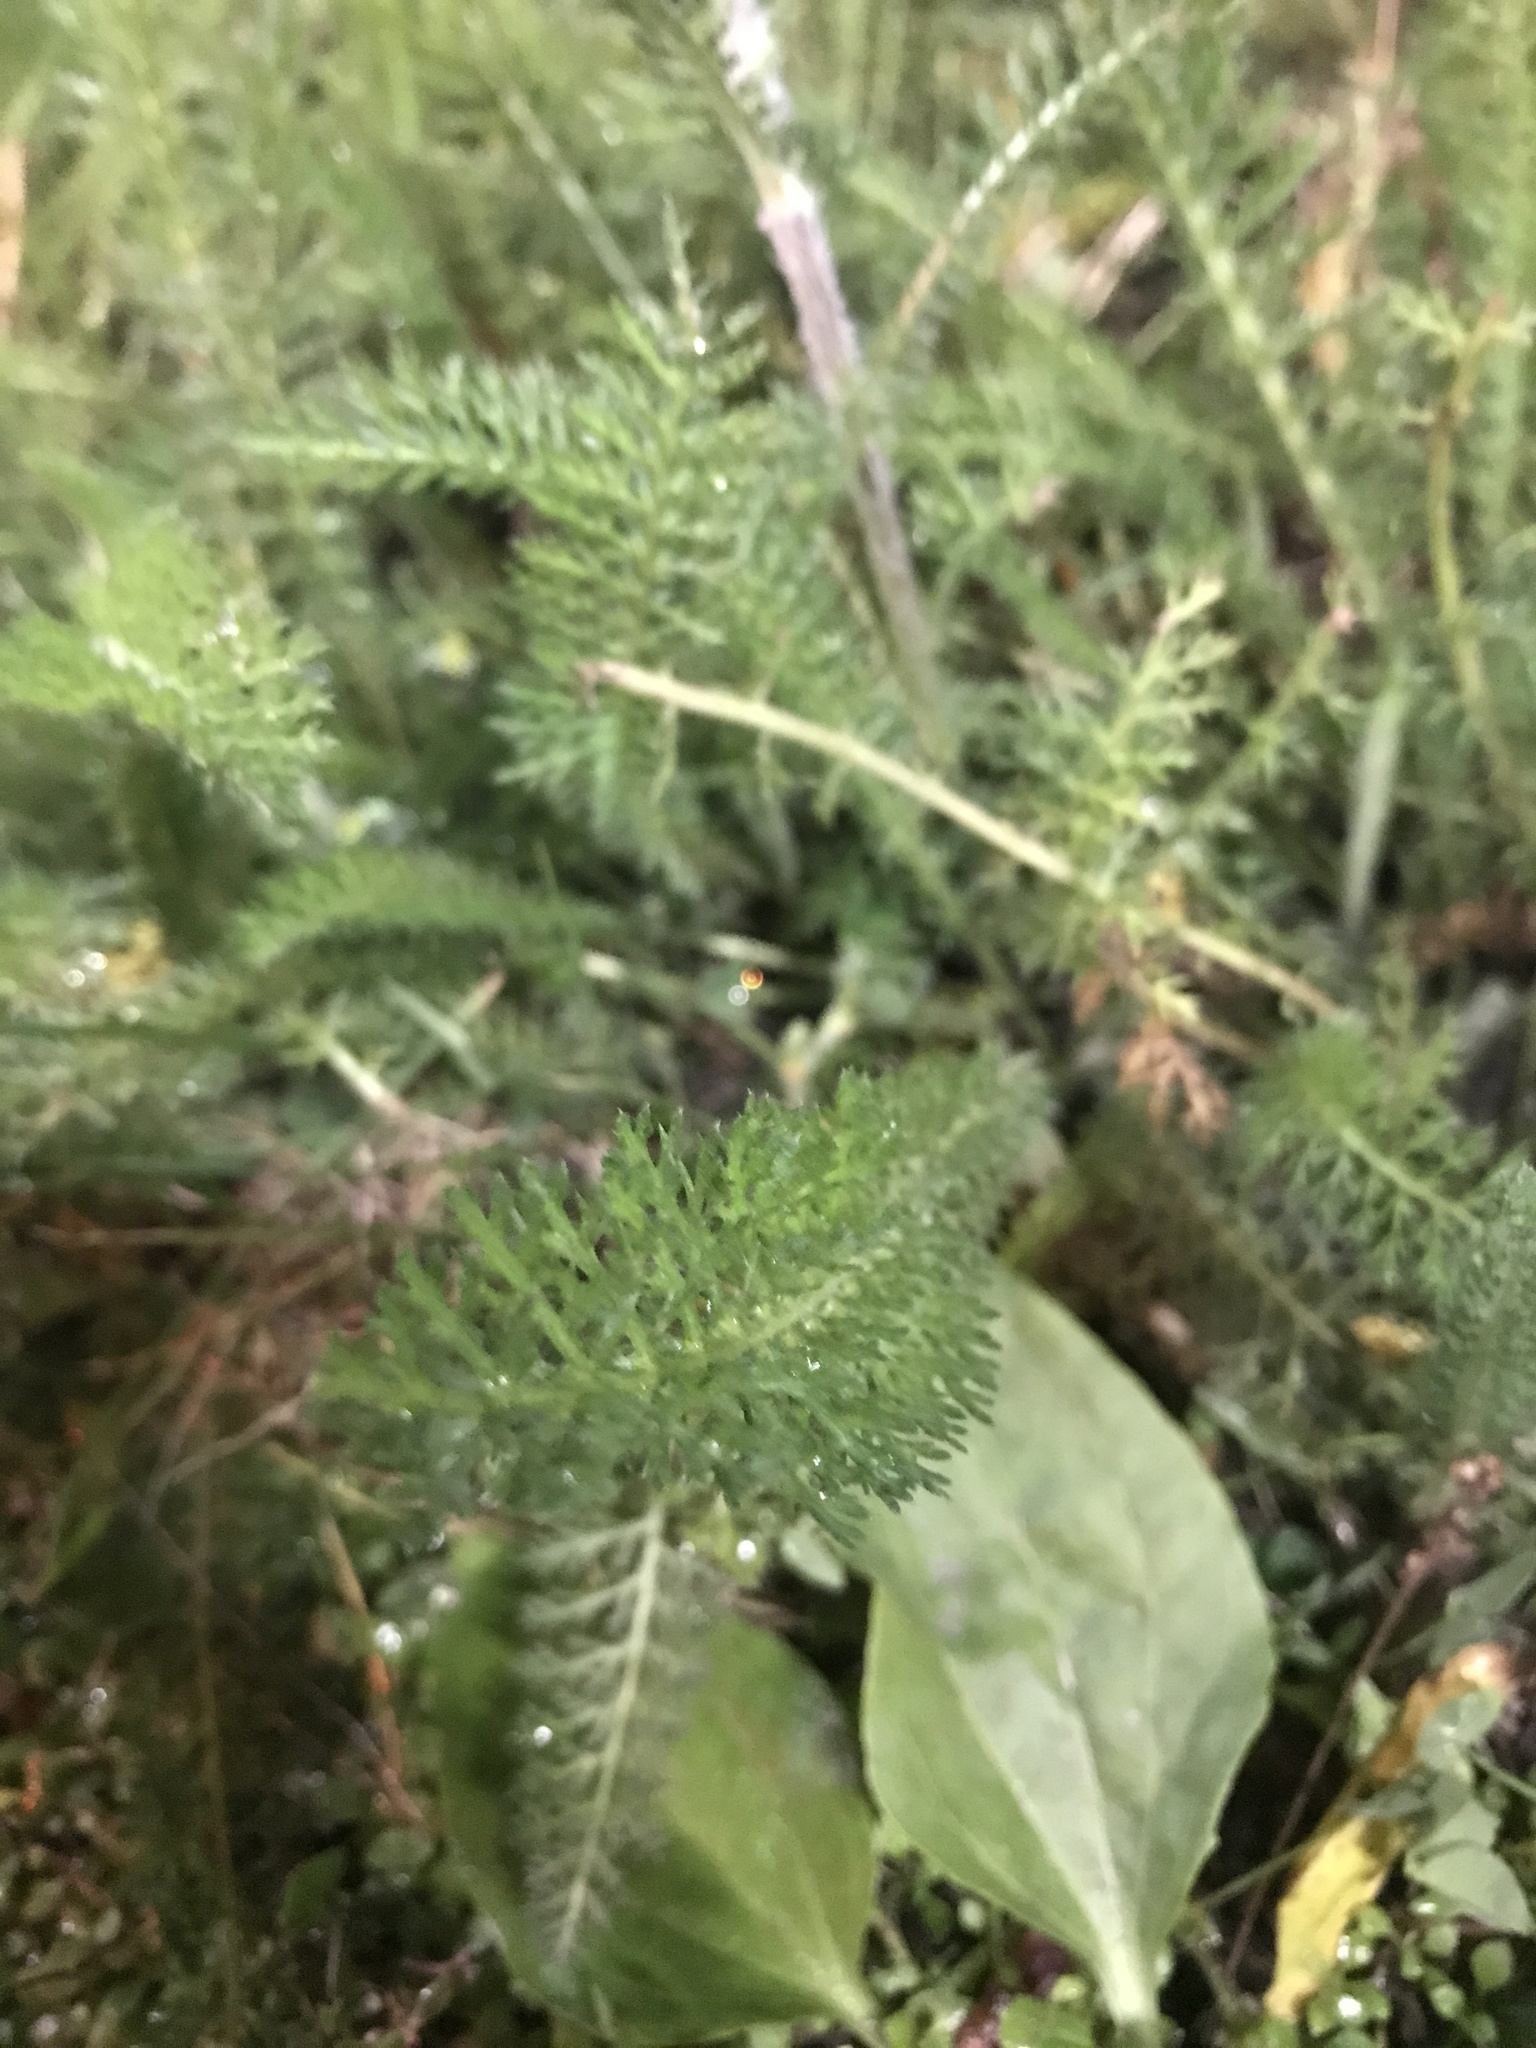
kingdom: Plantae
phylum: Tracheophyta
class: Magnoliopsida
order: Asterales
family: Asteraceae
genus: Achillea
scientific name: Achillea millefolium
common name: Yarrow
